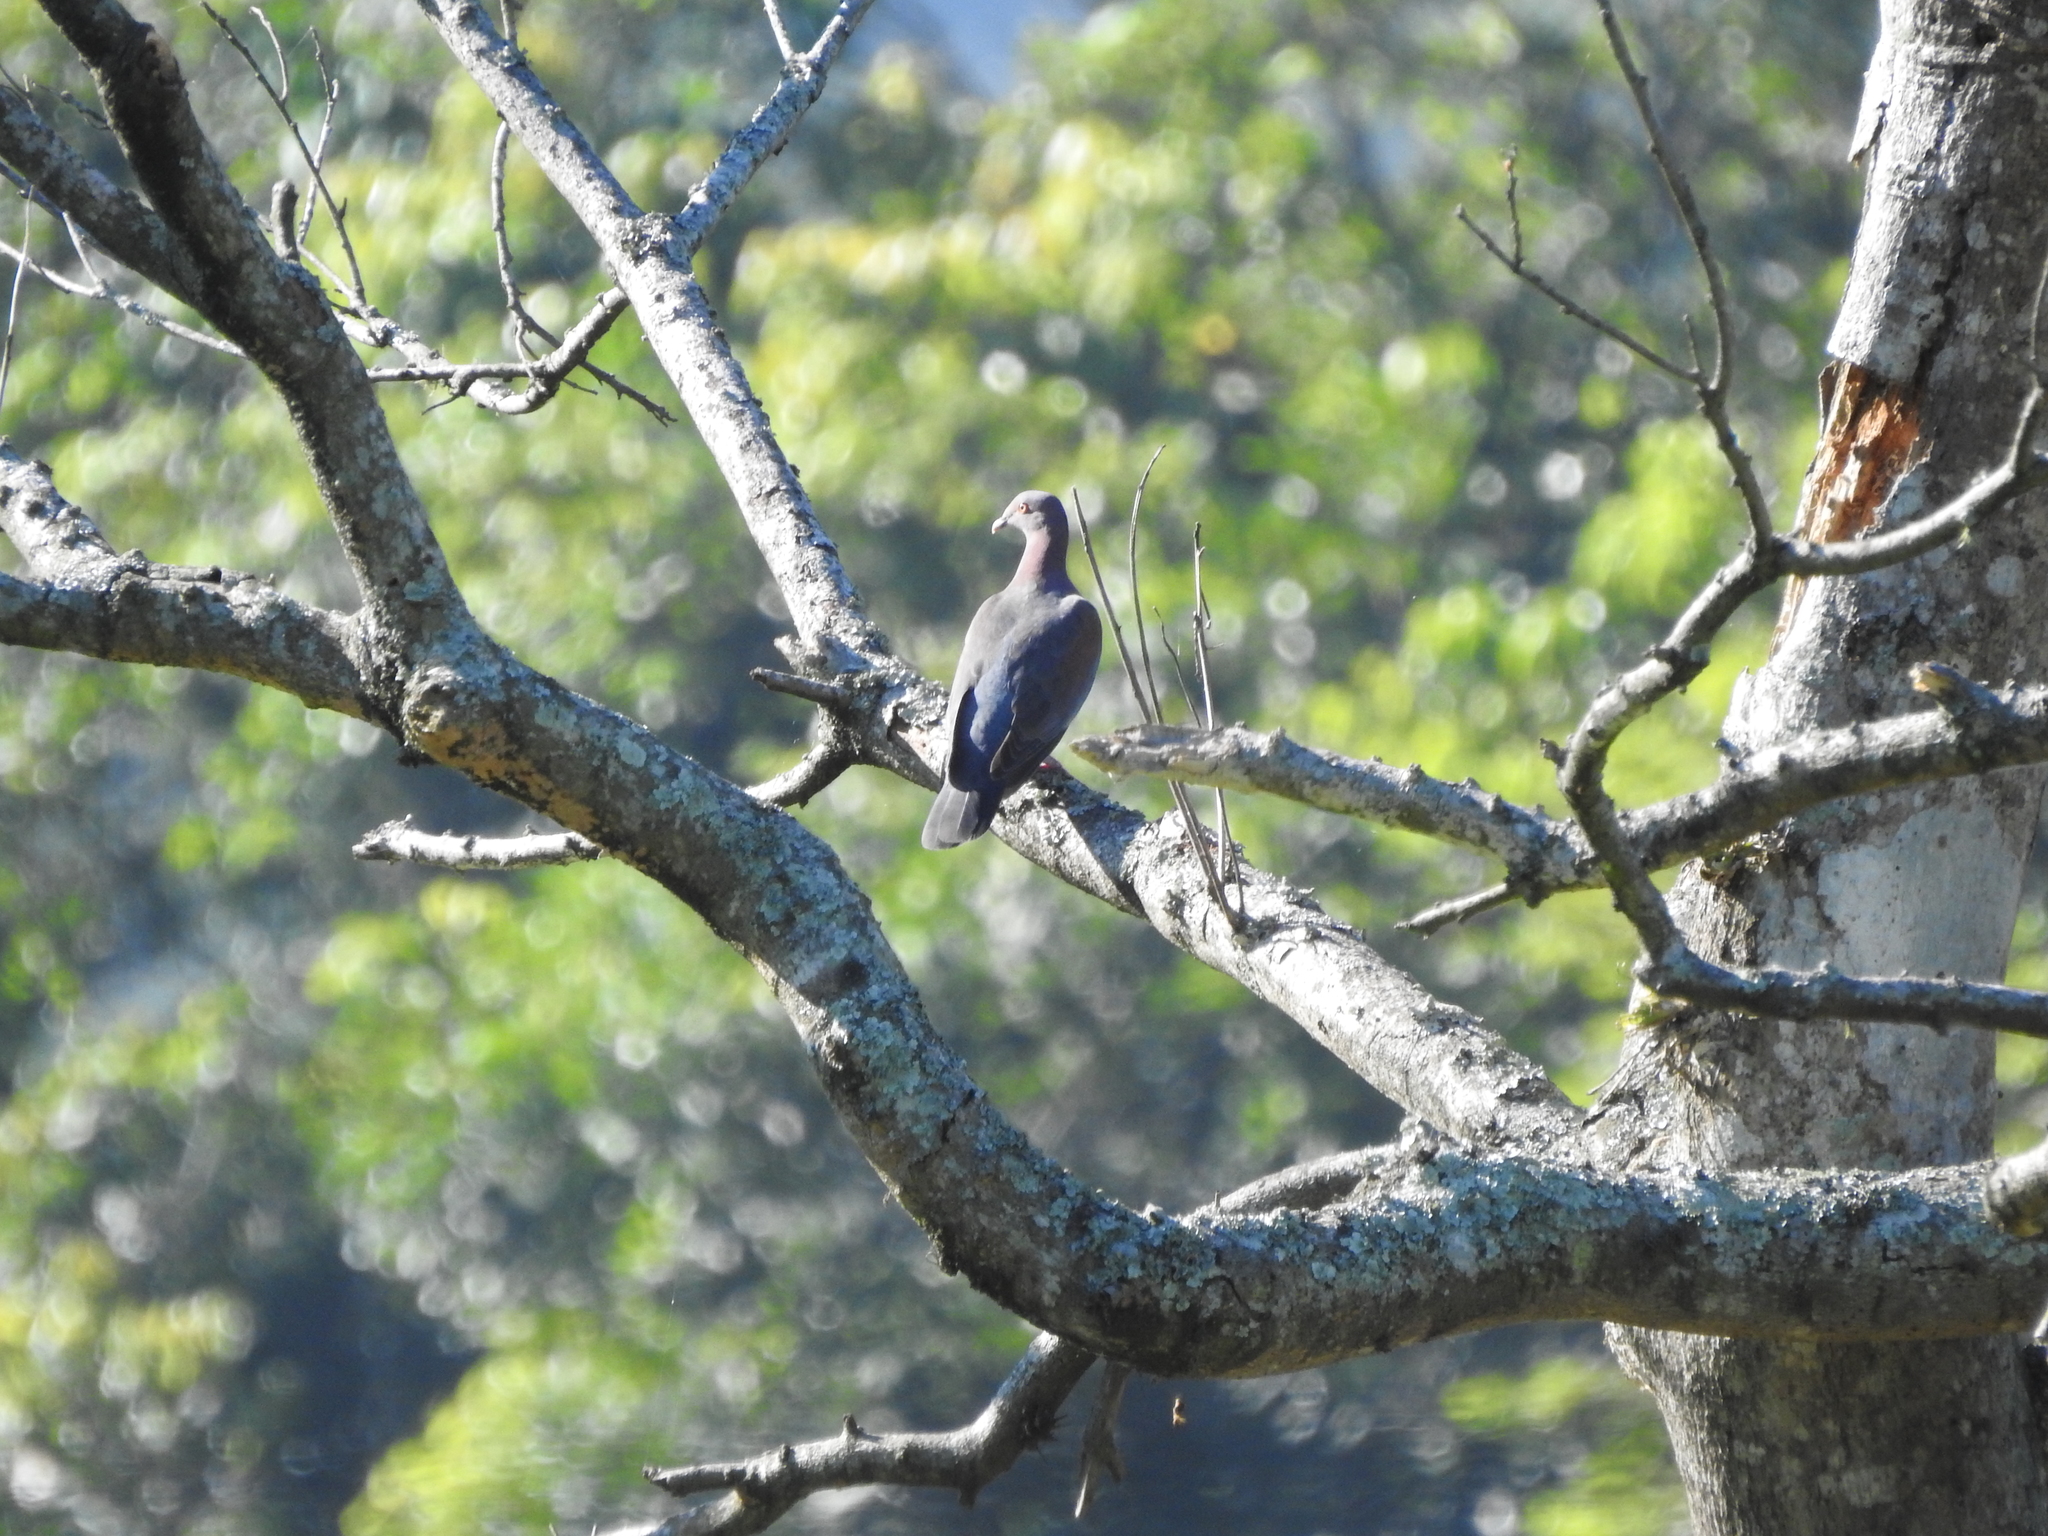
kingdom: Animalia
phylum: Chordata
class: Aves
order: Columbiformes
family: Columbidae
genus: Patagioenas
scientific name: Patagioenas flavirostris
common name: Red-billed pigeon
